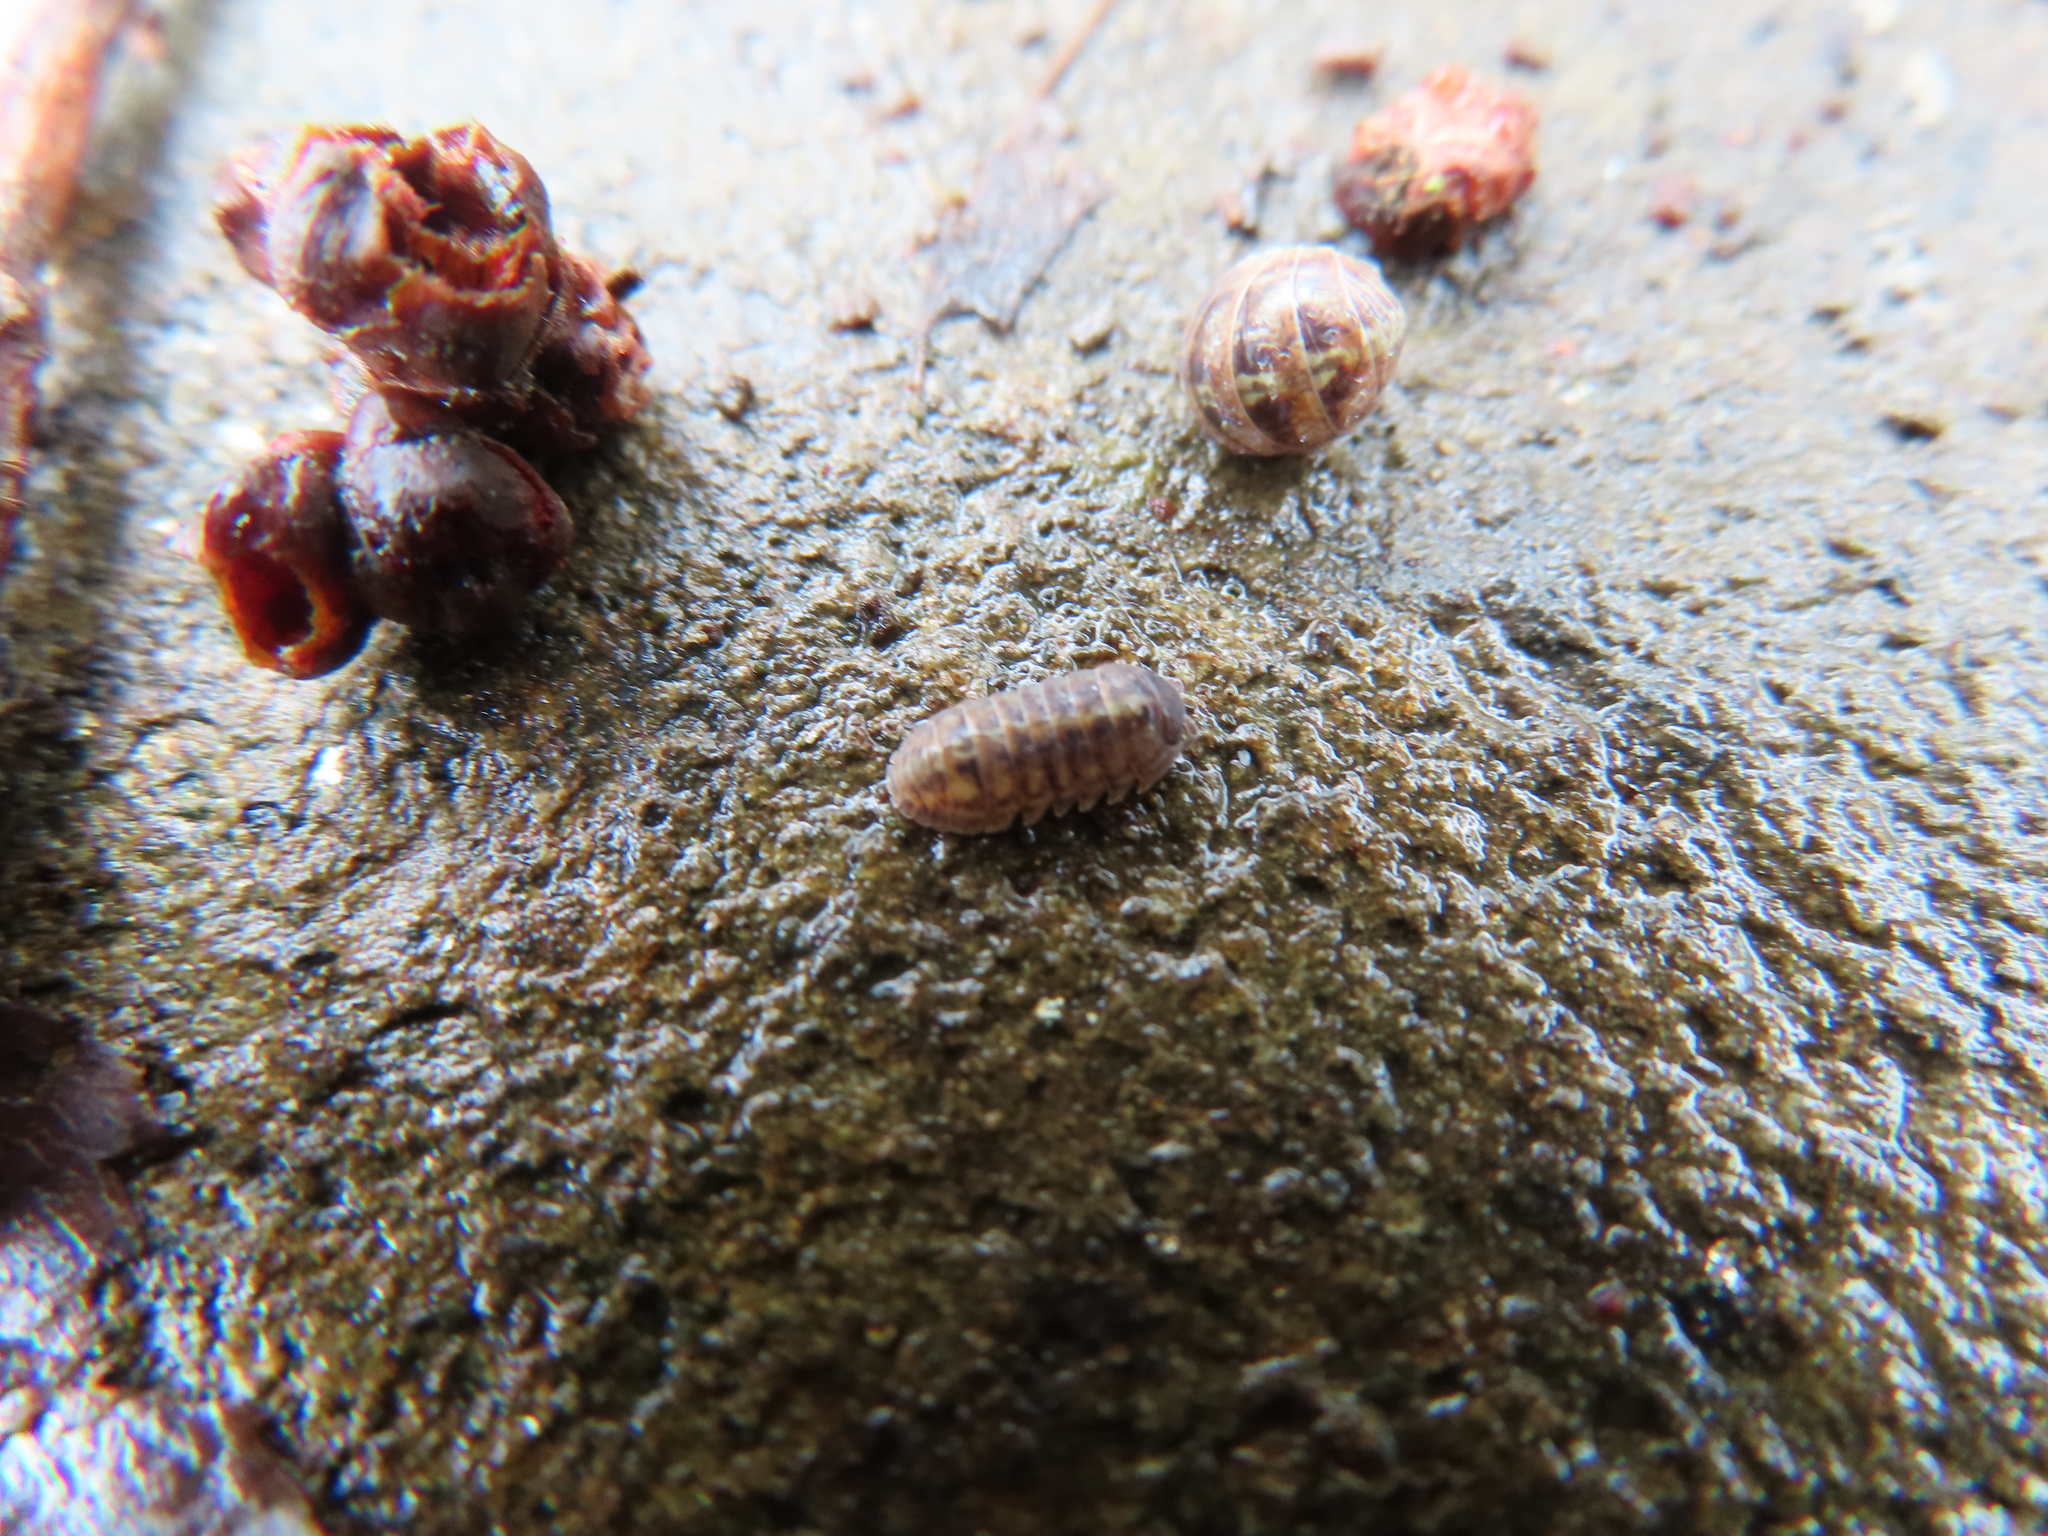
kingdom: Animalia
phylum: Arthropoda
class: Malacostraca
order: Isopoda
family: Armadillidiidae
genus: Armadillidium
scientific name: Armadillidium vulgare
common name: Common pill woodlouse
